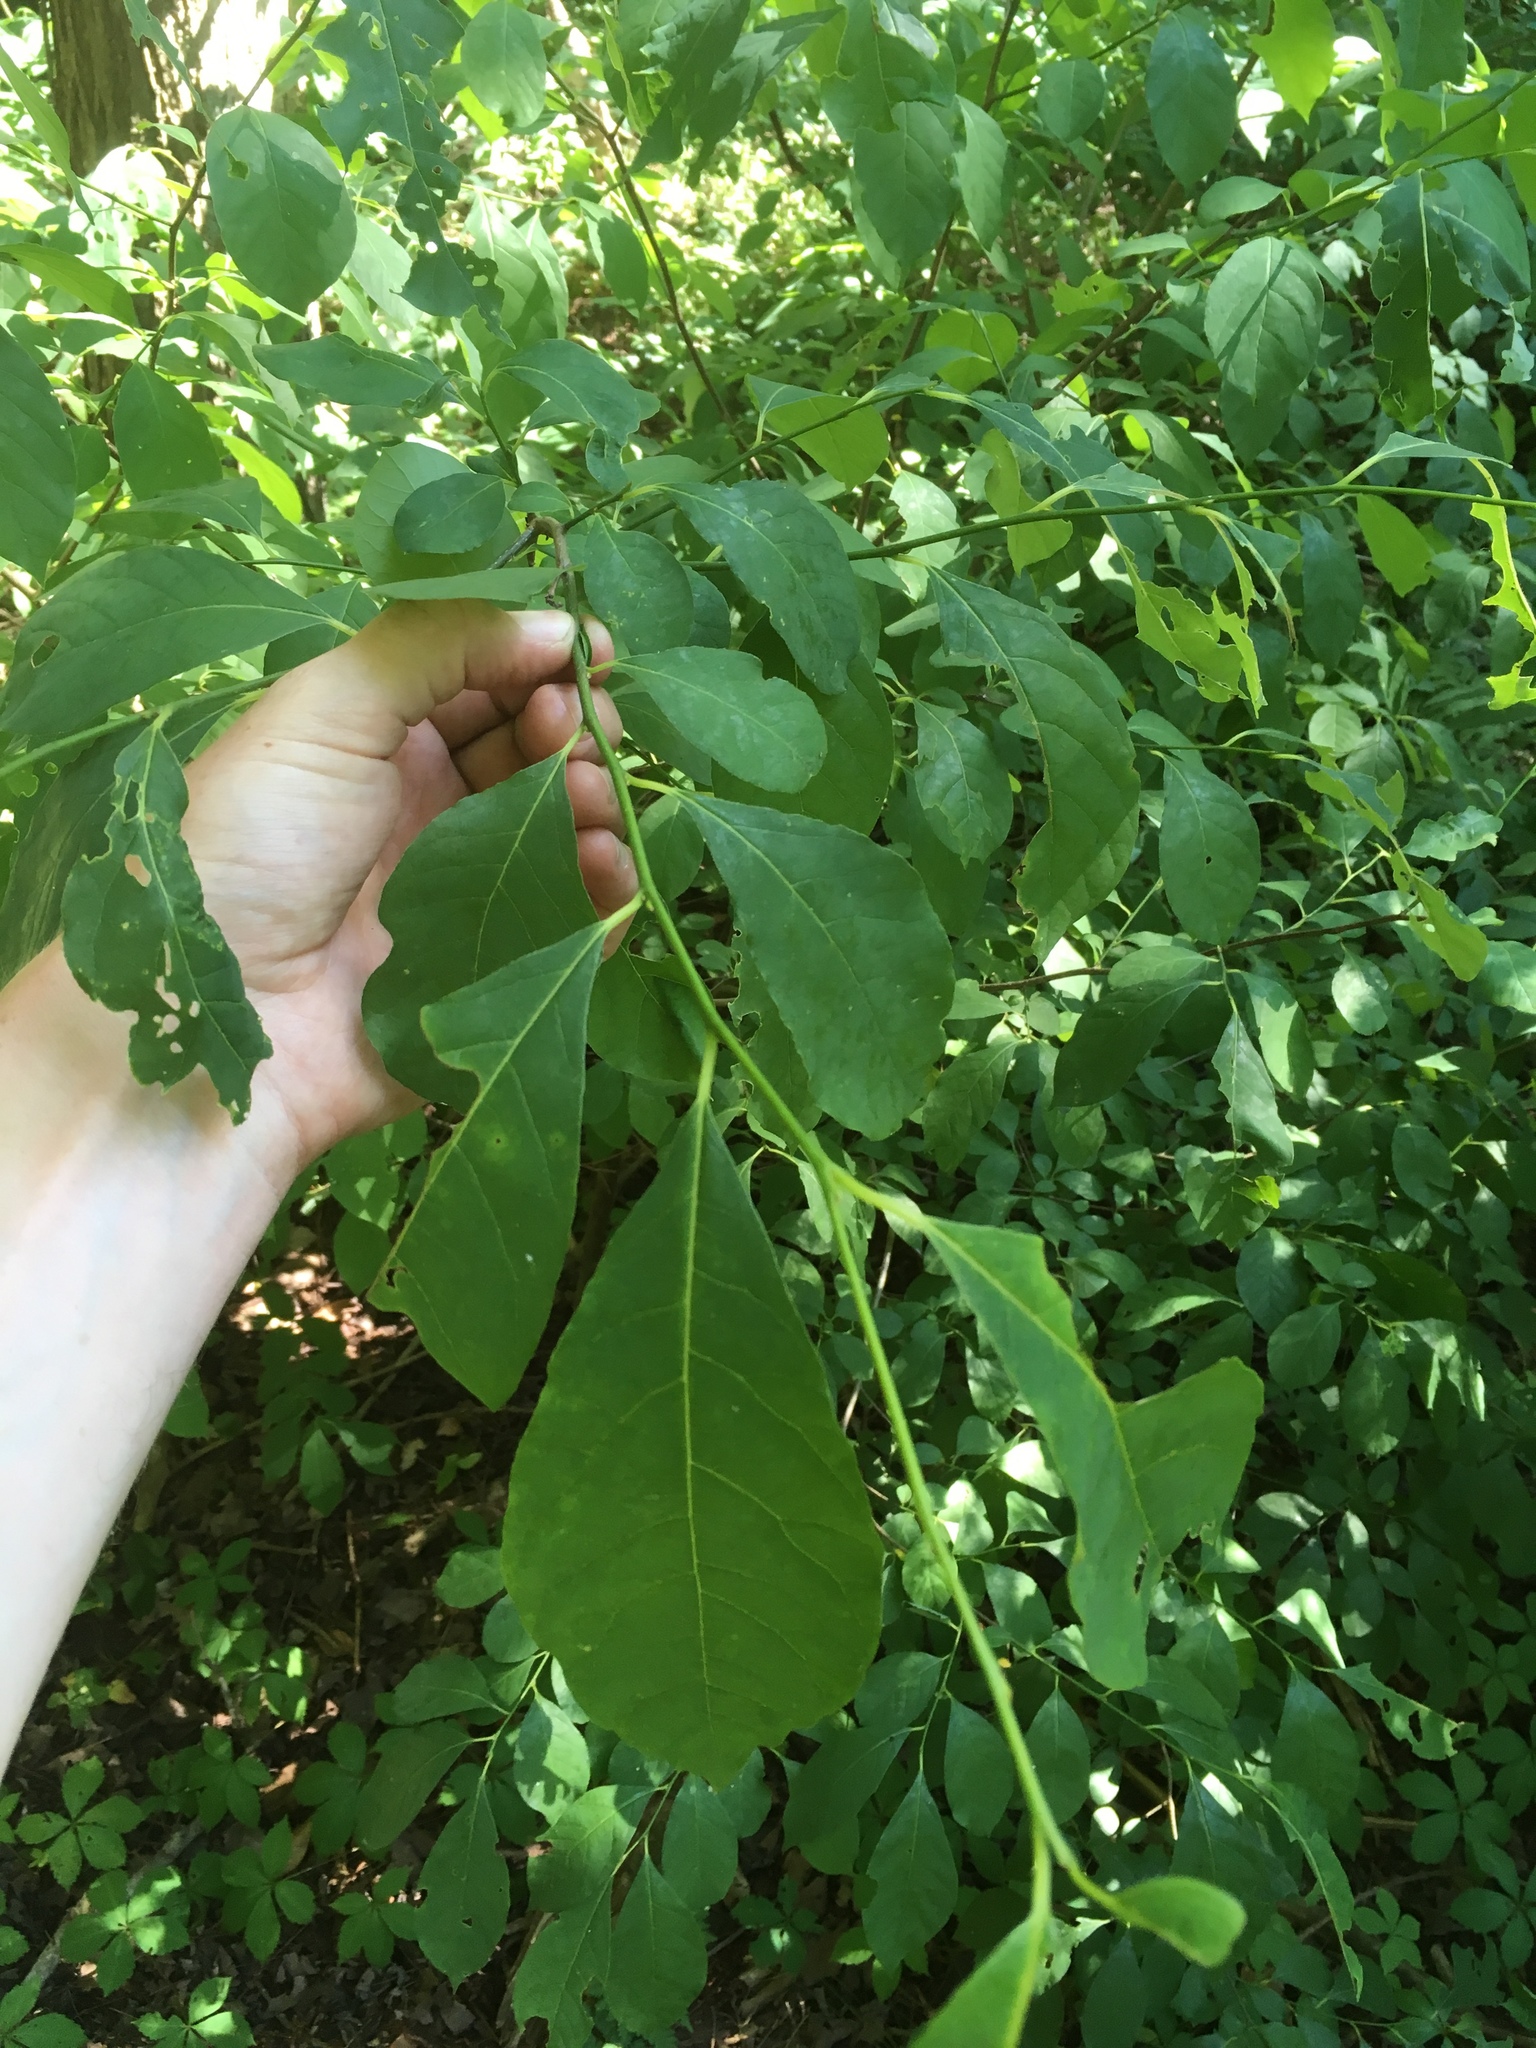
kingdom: Plantae
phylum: Tracheophyta
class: Magnoliopsida
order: Laurales
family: Lauraceae
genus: Lindera
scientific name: Lindera benzoin
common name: Spicebush
